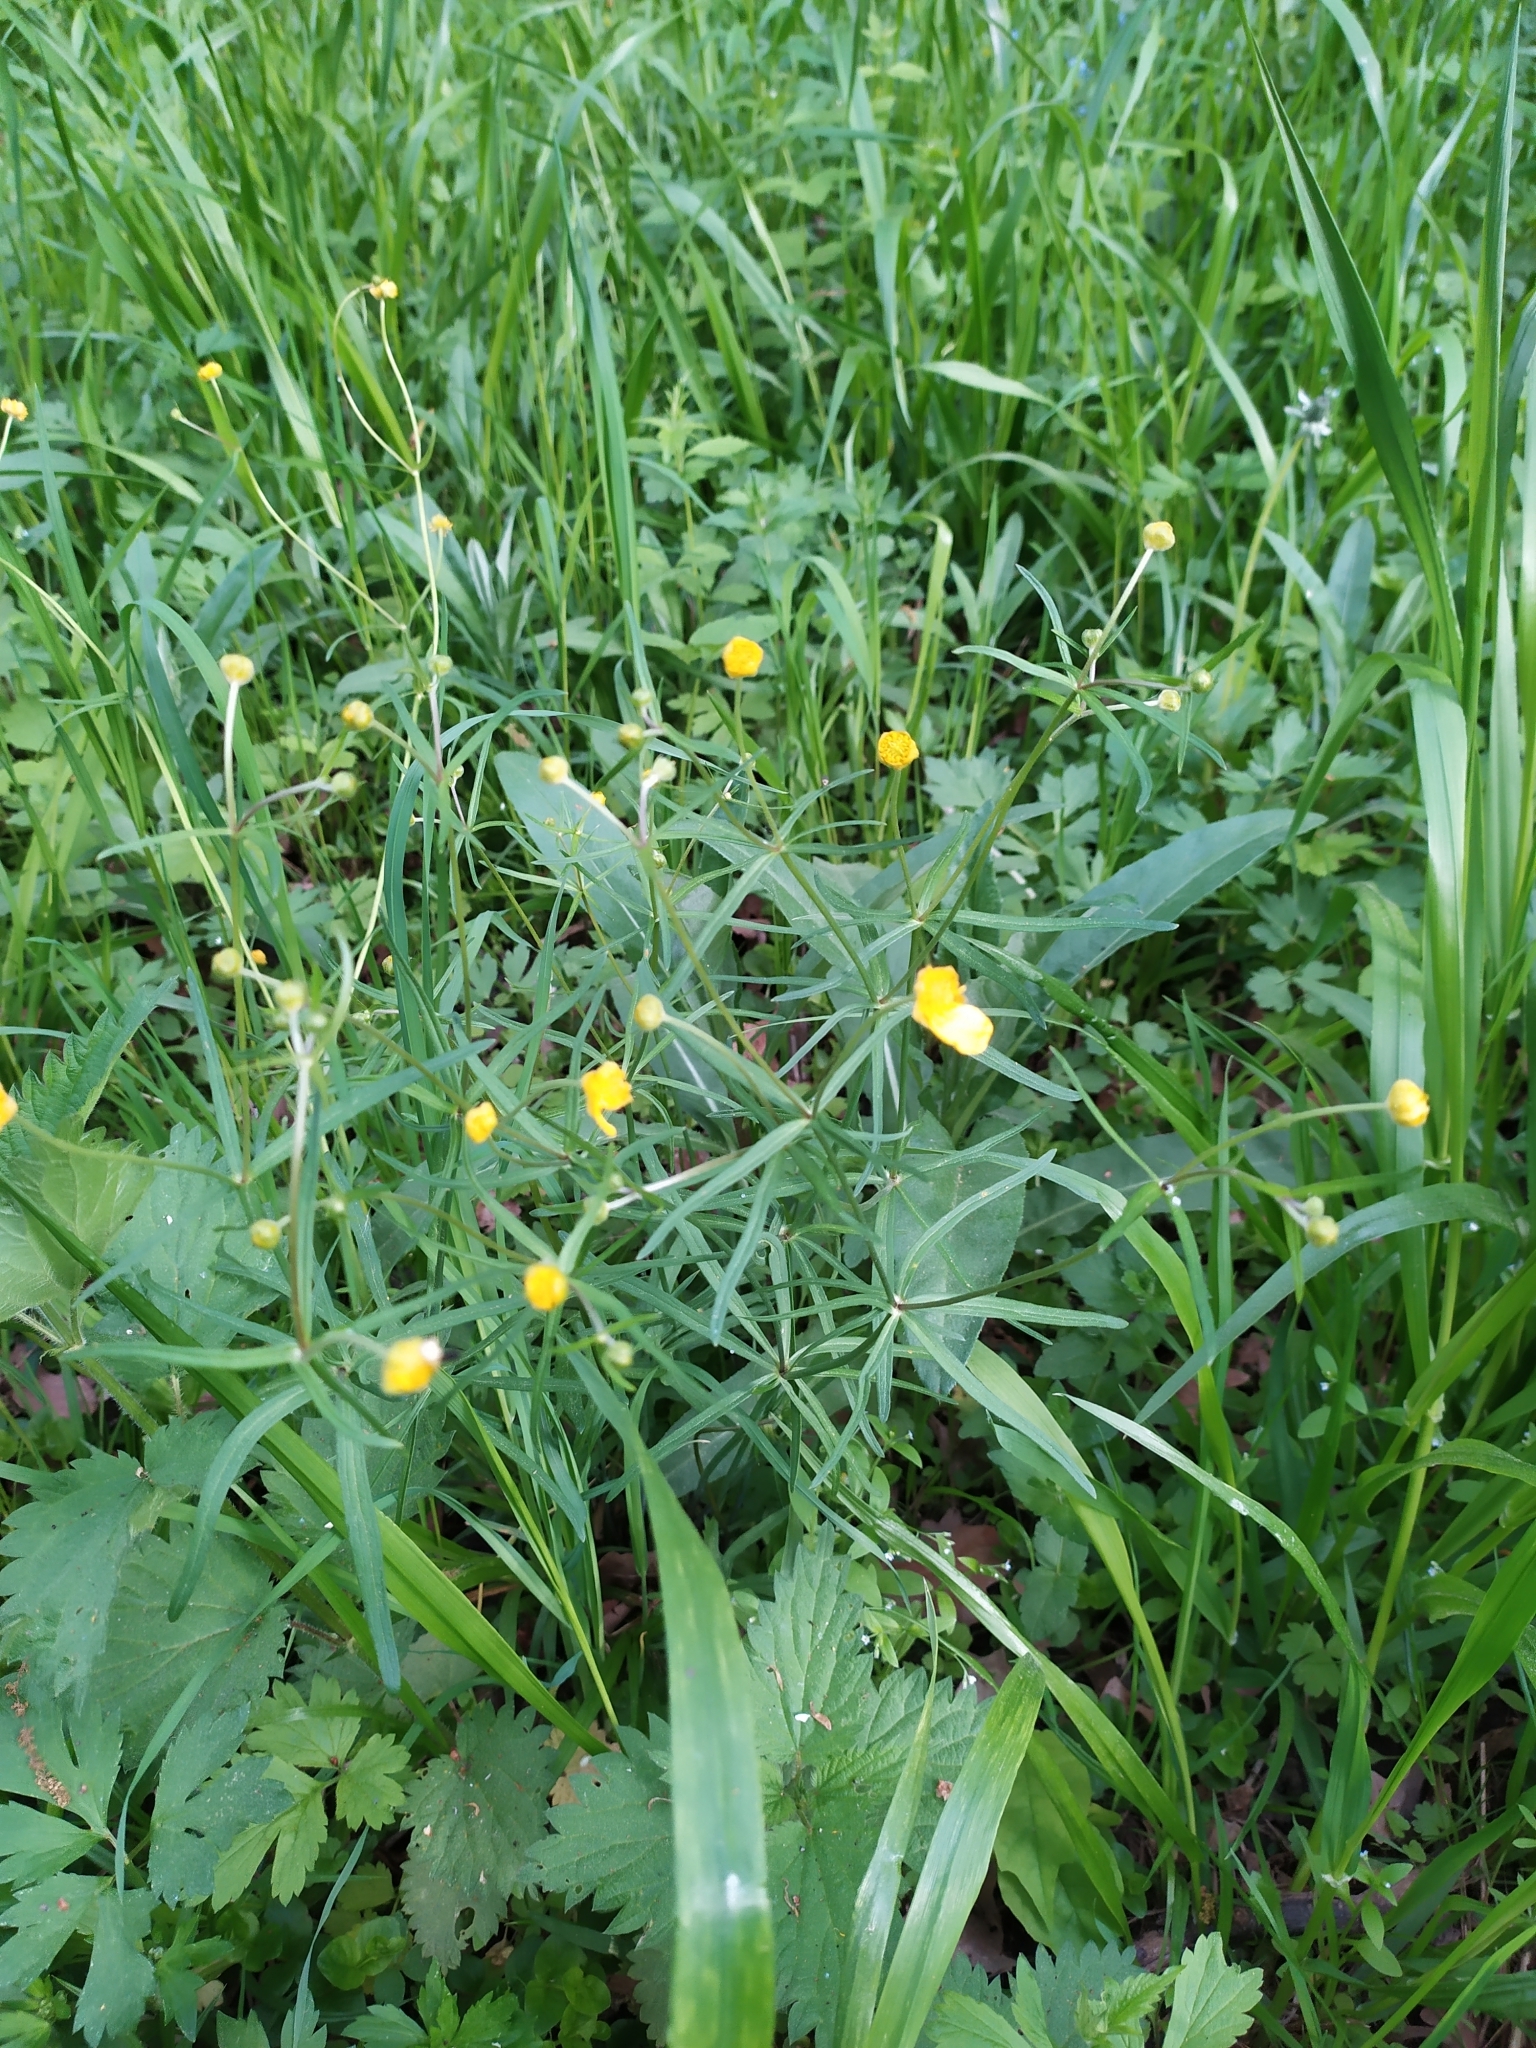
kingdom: Plantae
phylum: Tracheophyta
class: Magnoliopsida
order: Ranunculales
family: Ranunculaceae
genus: Ranunculus
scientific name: Ranunculus auricomus
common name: Goldilocks buttercup
